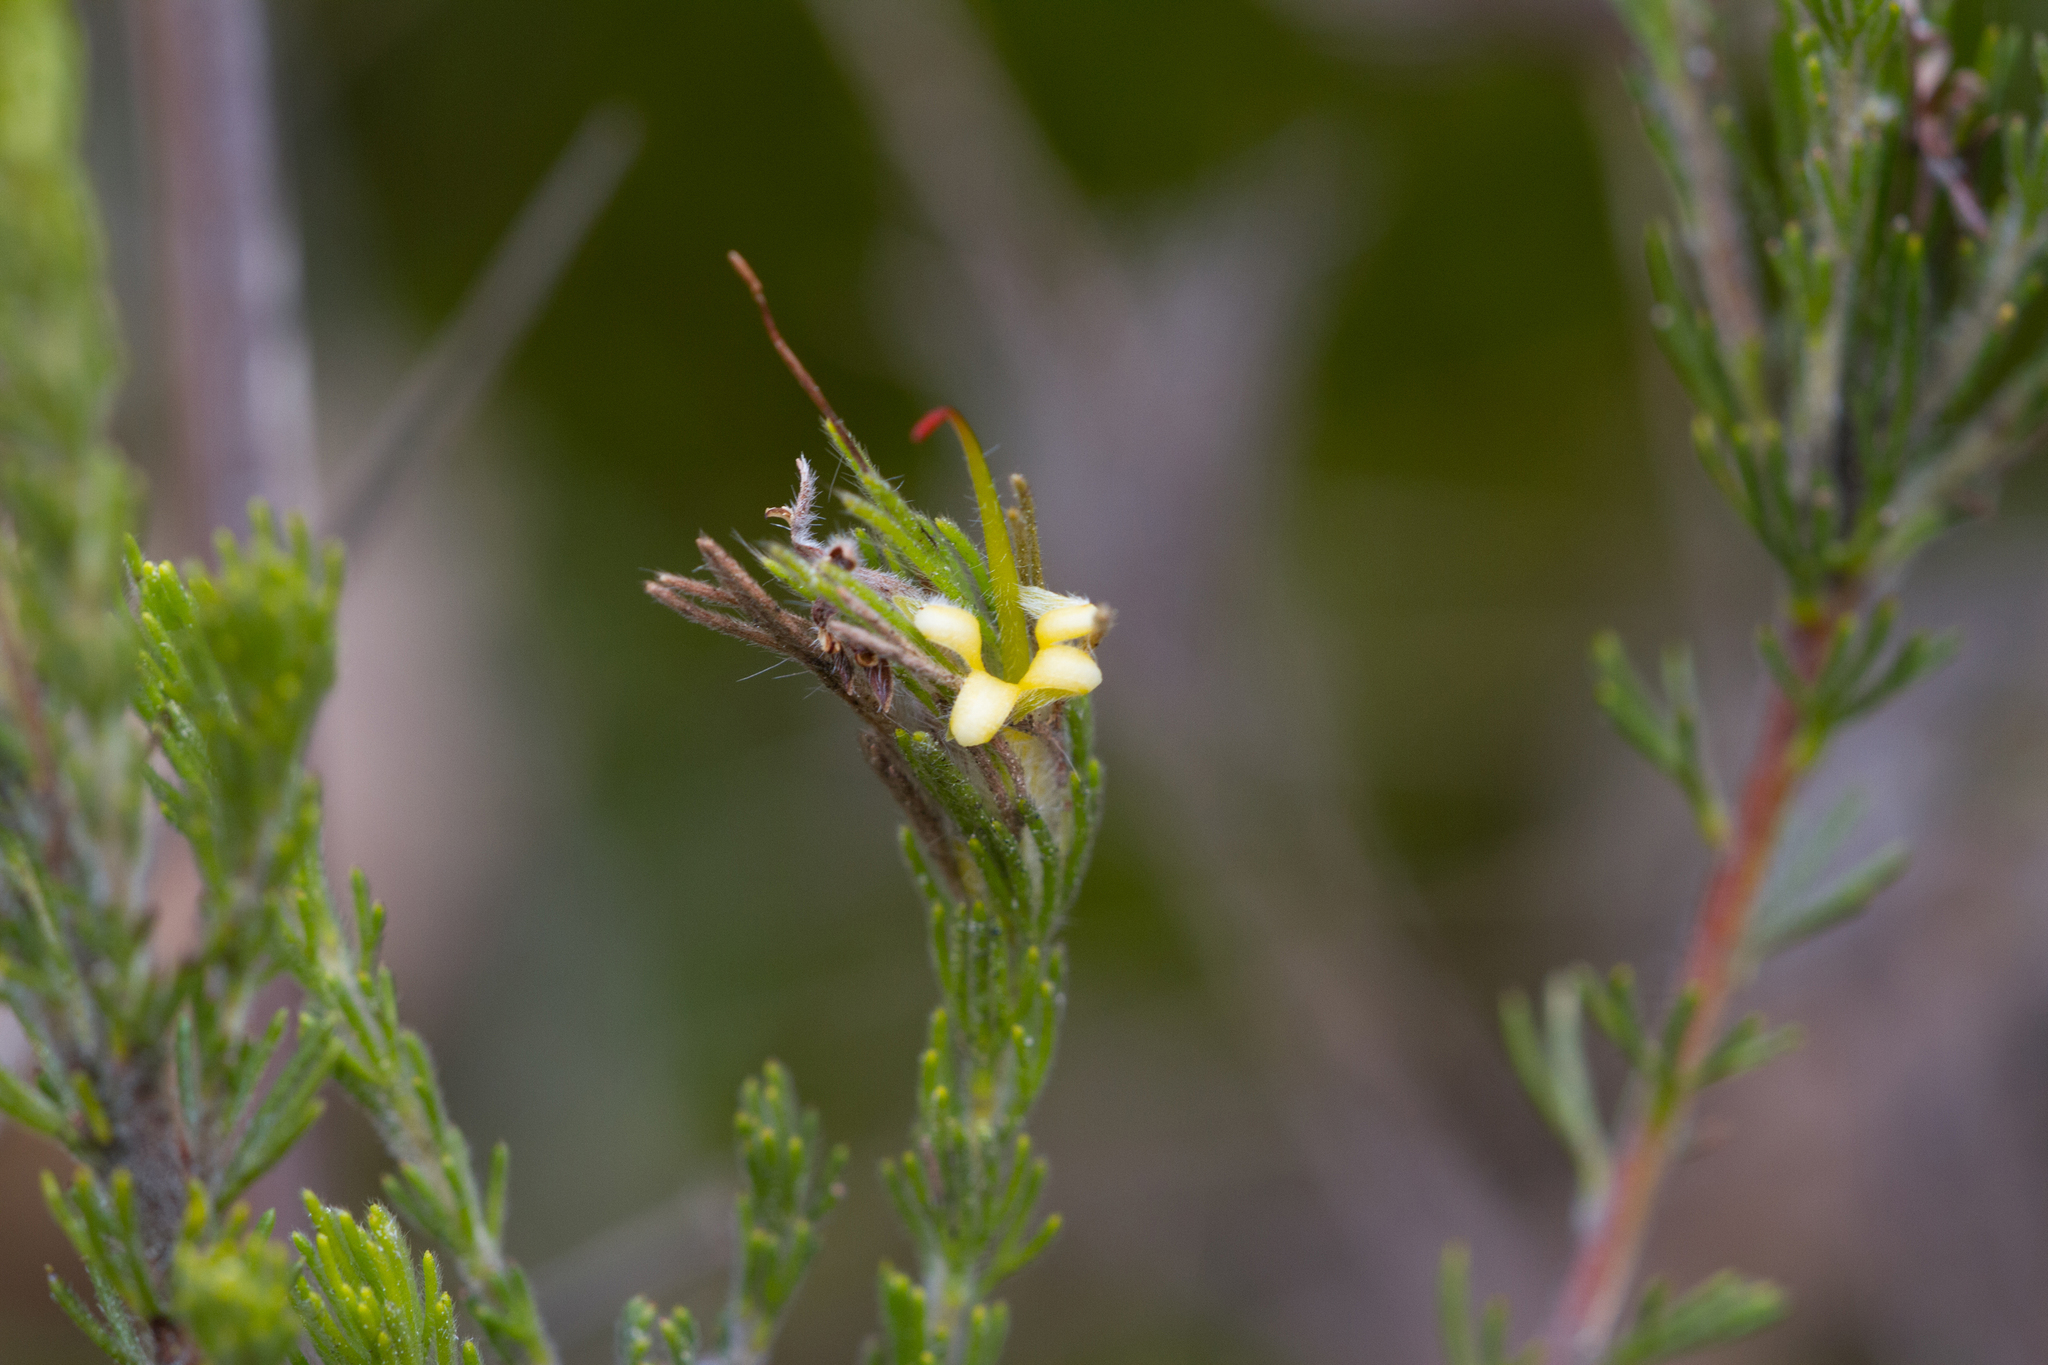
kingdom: Plantae
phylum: Tracheophyta
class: Magnoliopsida
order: Proteales
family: Proteaceae
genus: Adenanthos
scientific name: Adenanthos terminalis
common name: Yellow gland-flower
